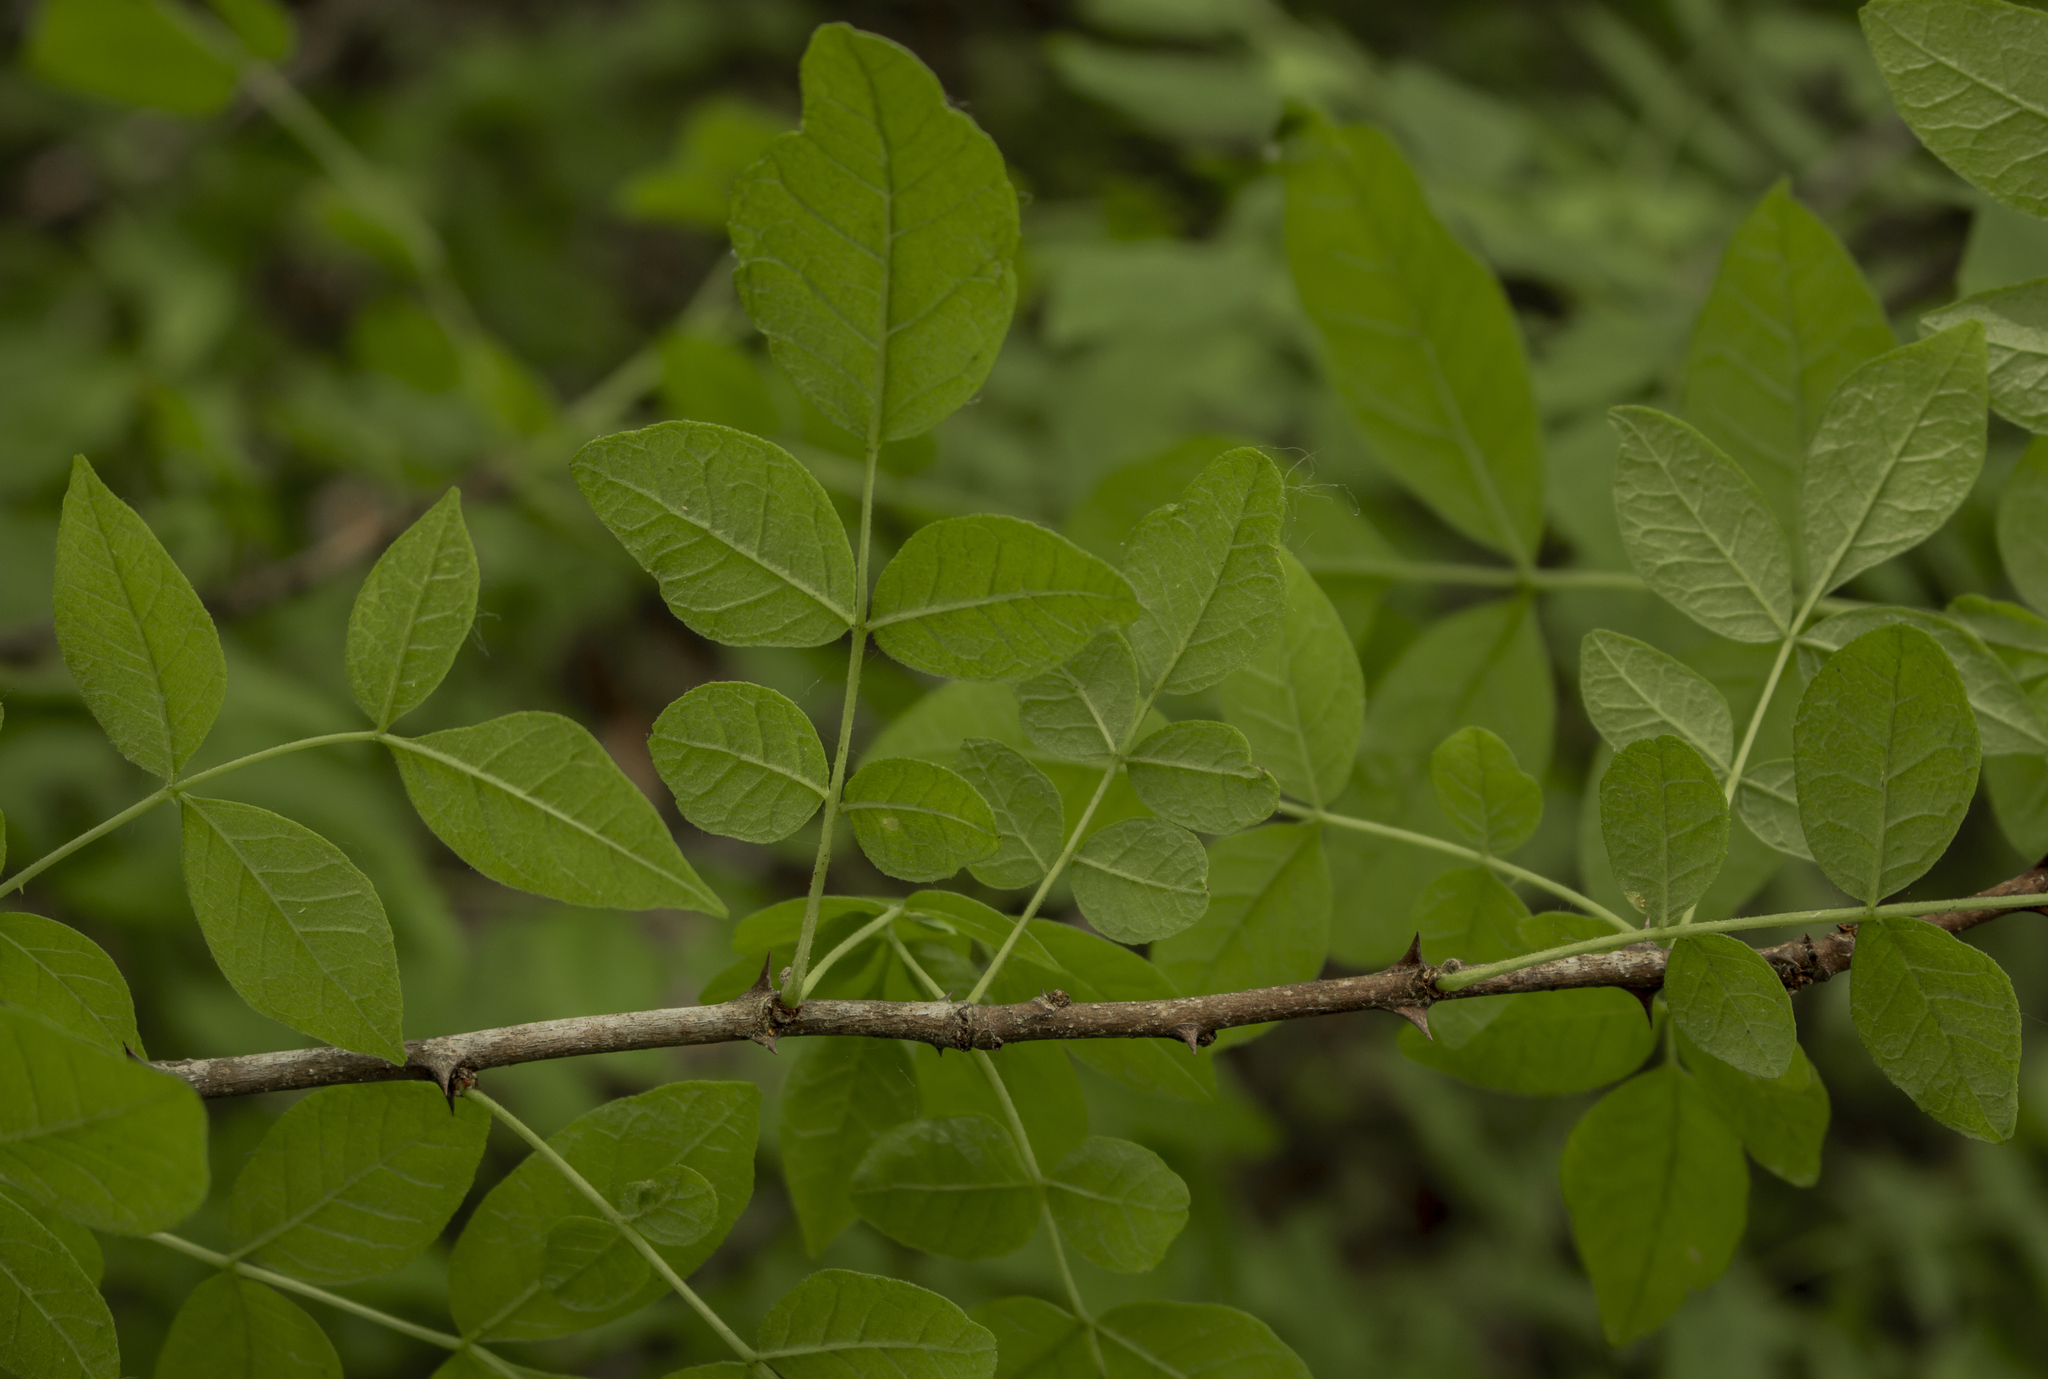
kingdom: Plantae
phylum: Tracheophyta
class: Magnoliopsida
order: Sapindales
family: Rutaceae
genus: Zanthoxylum
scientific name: Zanthoxylum americanum
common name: Northern prickly-ash
